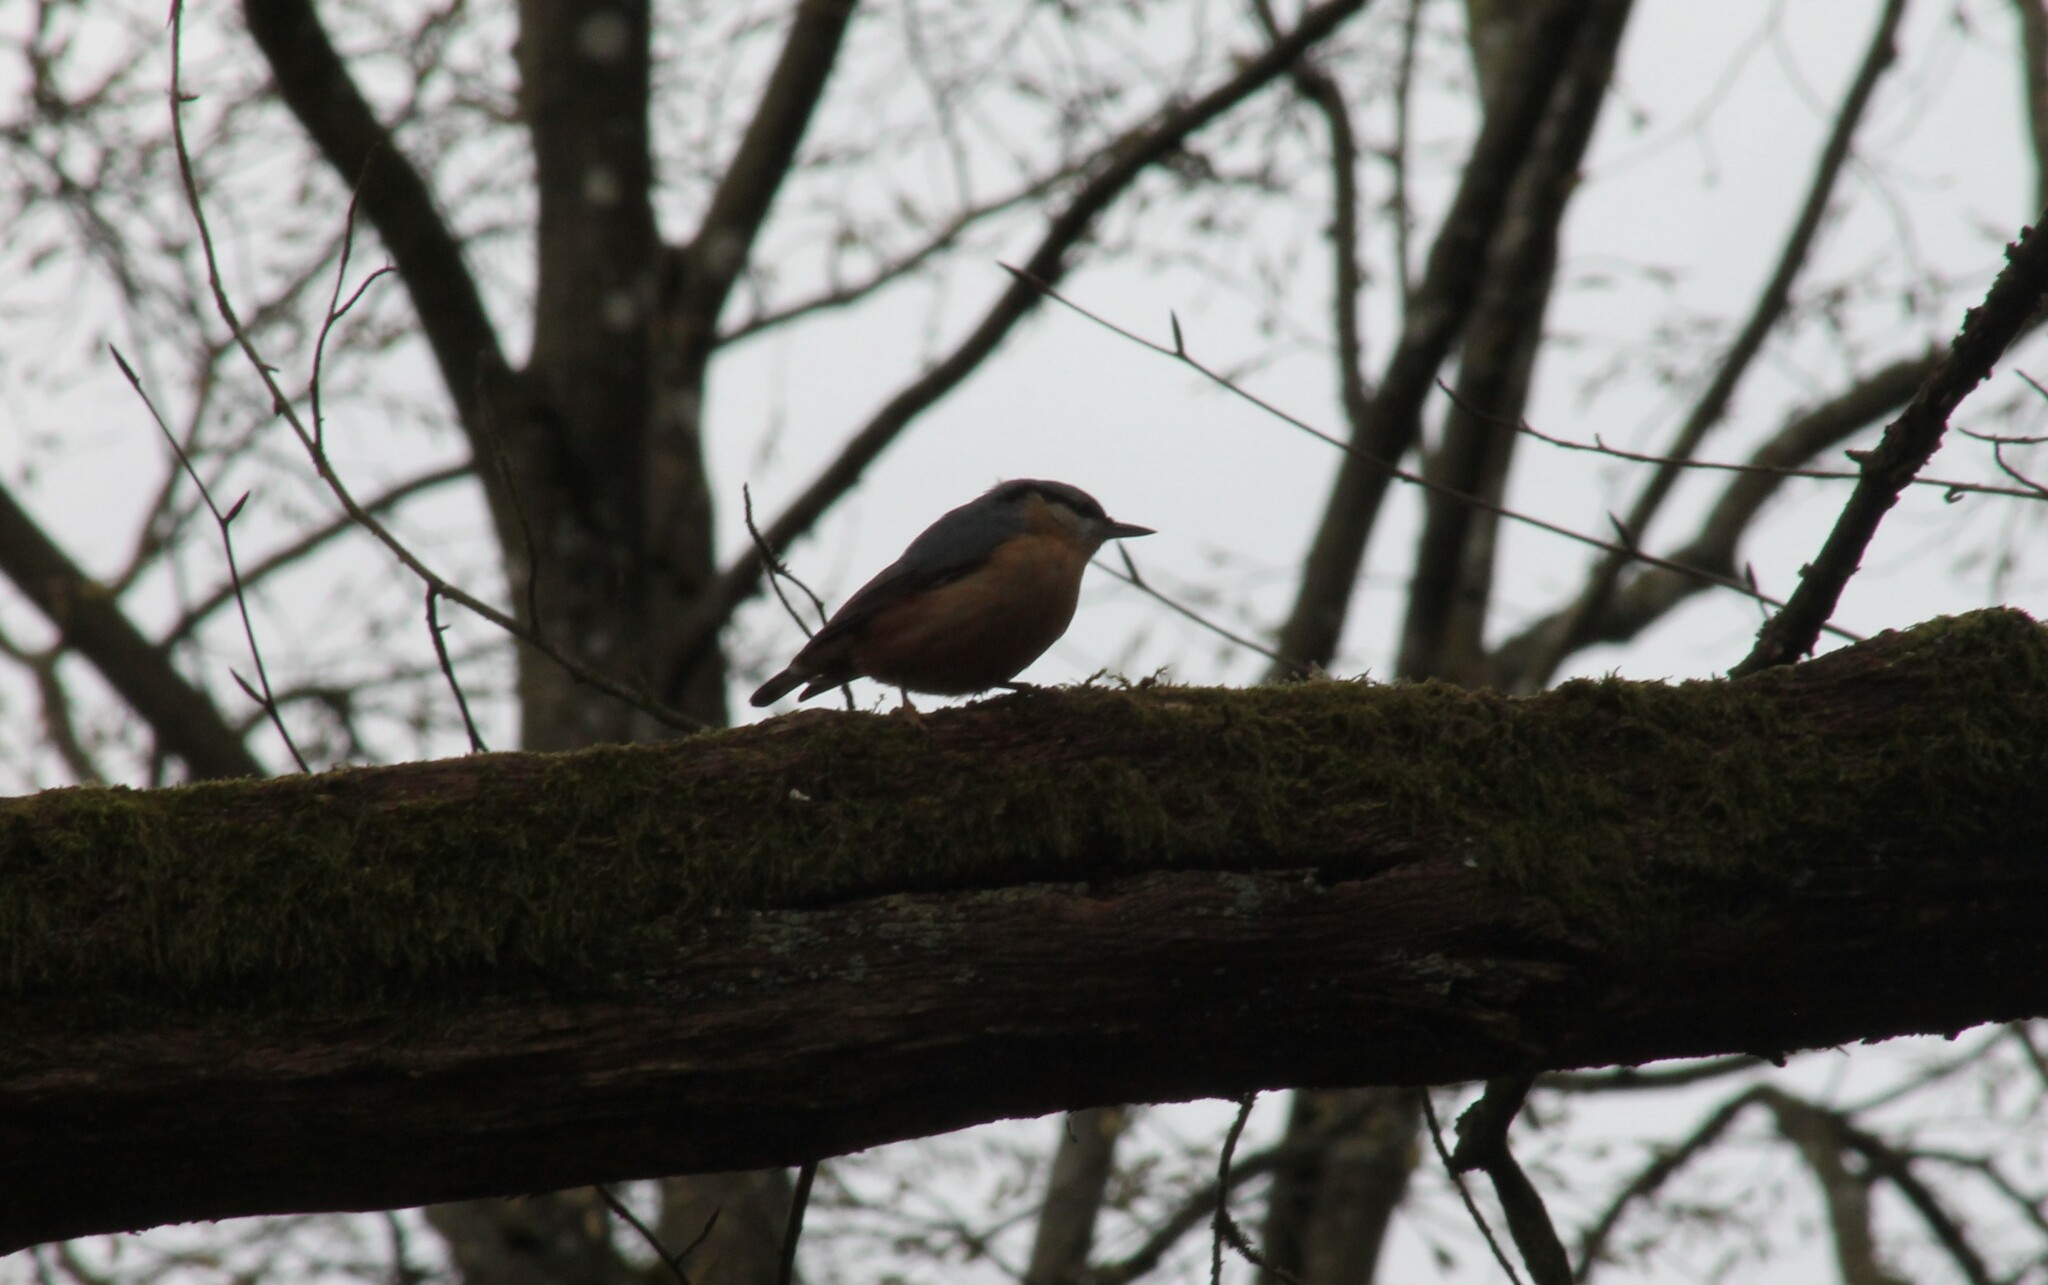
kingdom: Animalia
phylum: Chordata
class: Aves
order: Passeriformes
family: Sittidae
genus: Sitta
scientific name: Sitta europaea
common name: Eurasian nuthatch
